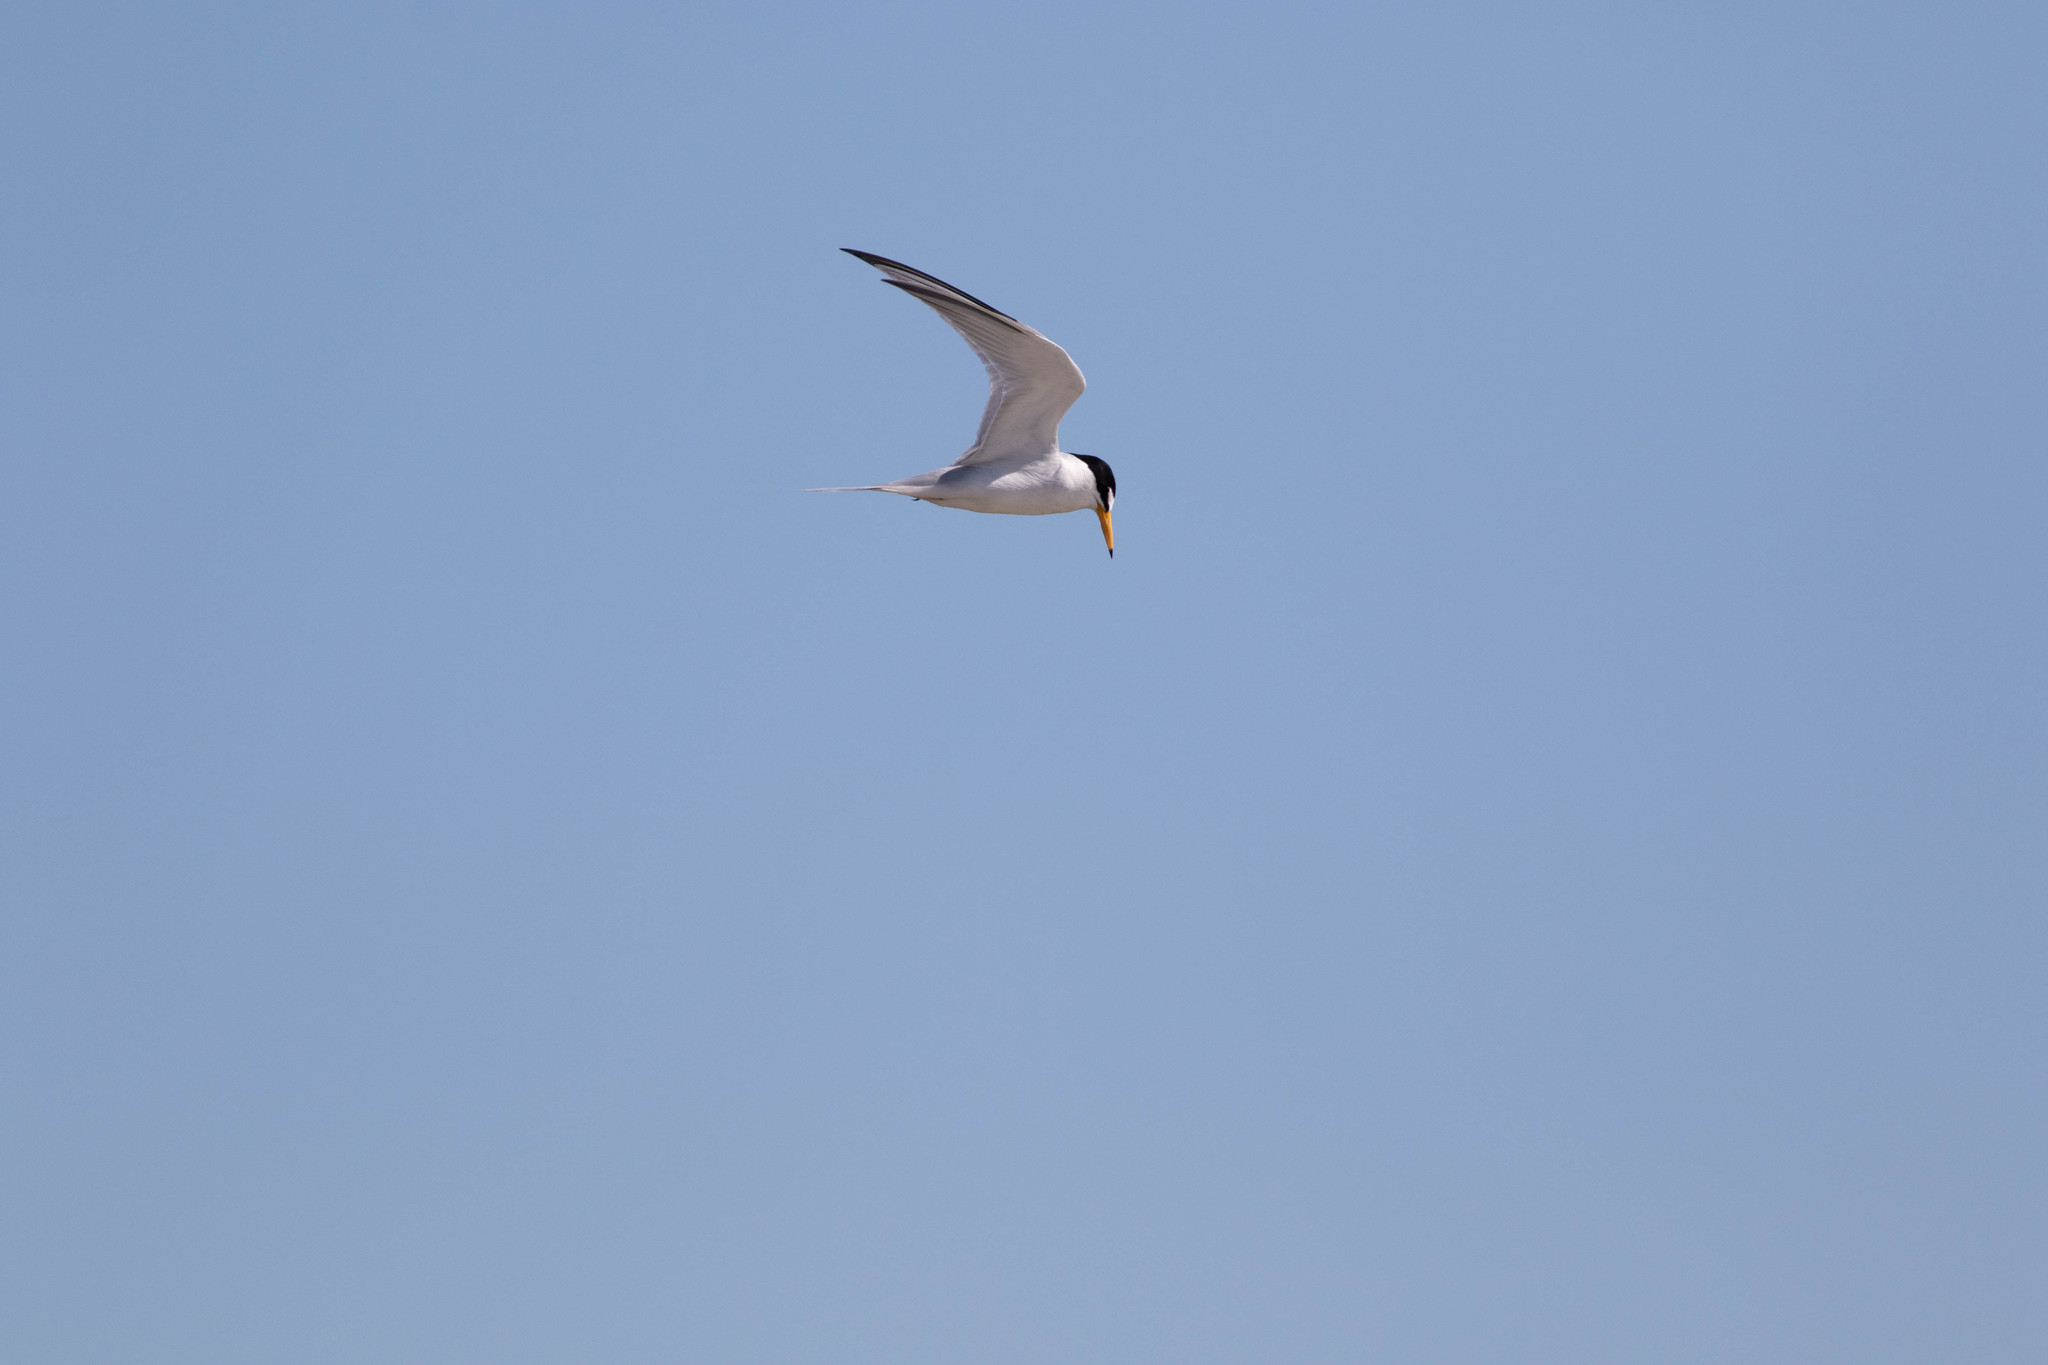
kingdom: Animalia
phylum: Chordata
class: Aves
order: Charadriiformes
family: Laridae
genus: Sternula
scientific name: Sternula antillarum
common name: Least tern
